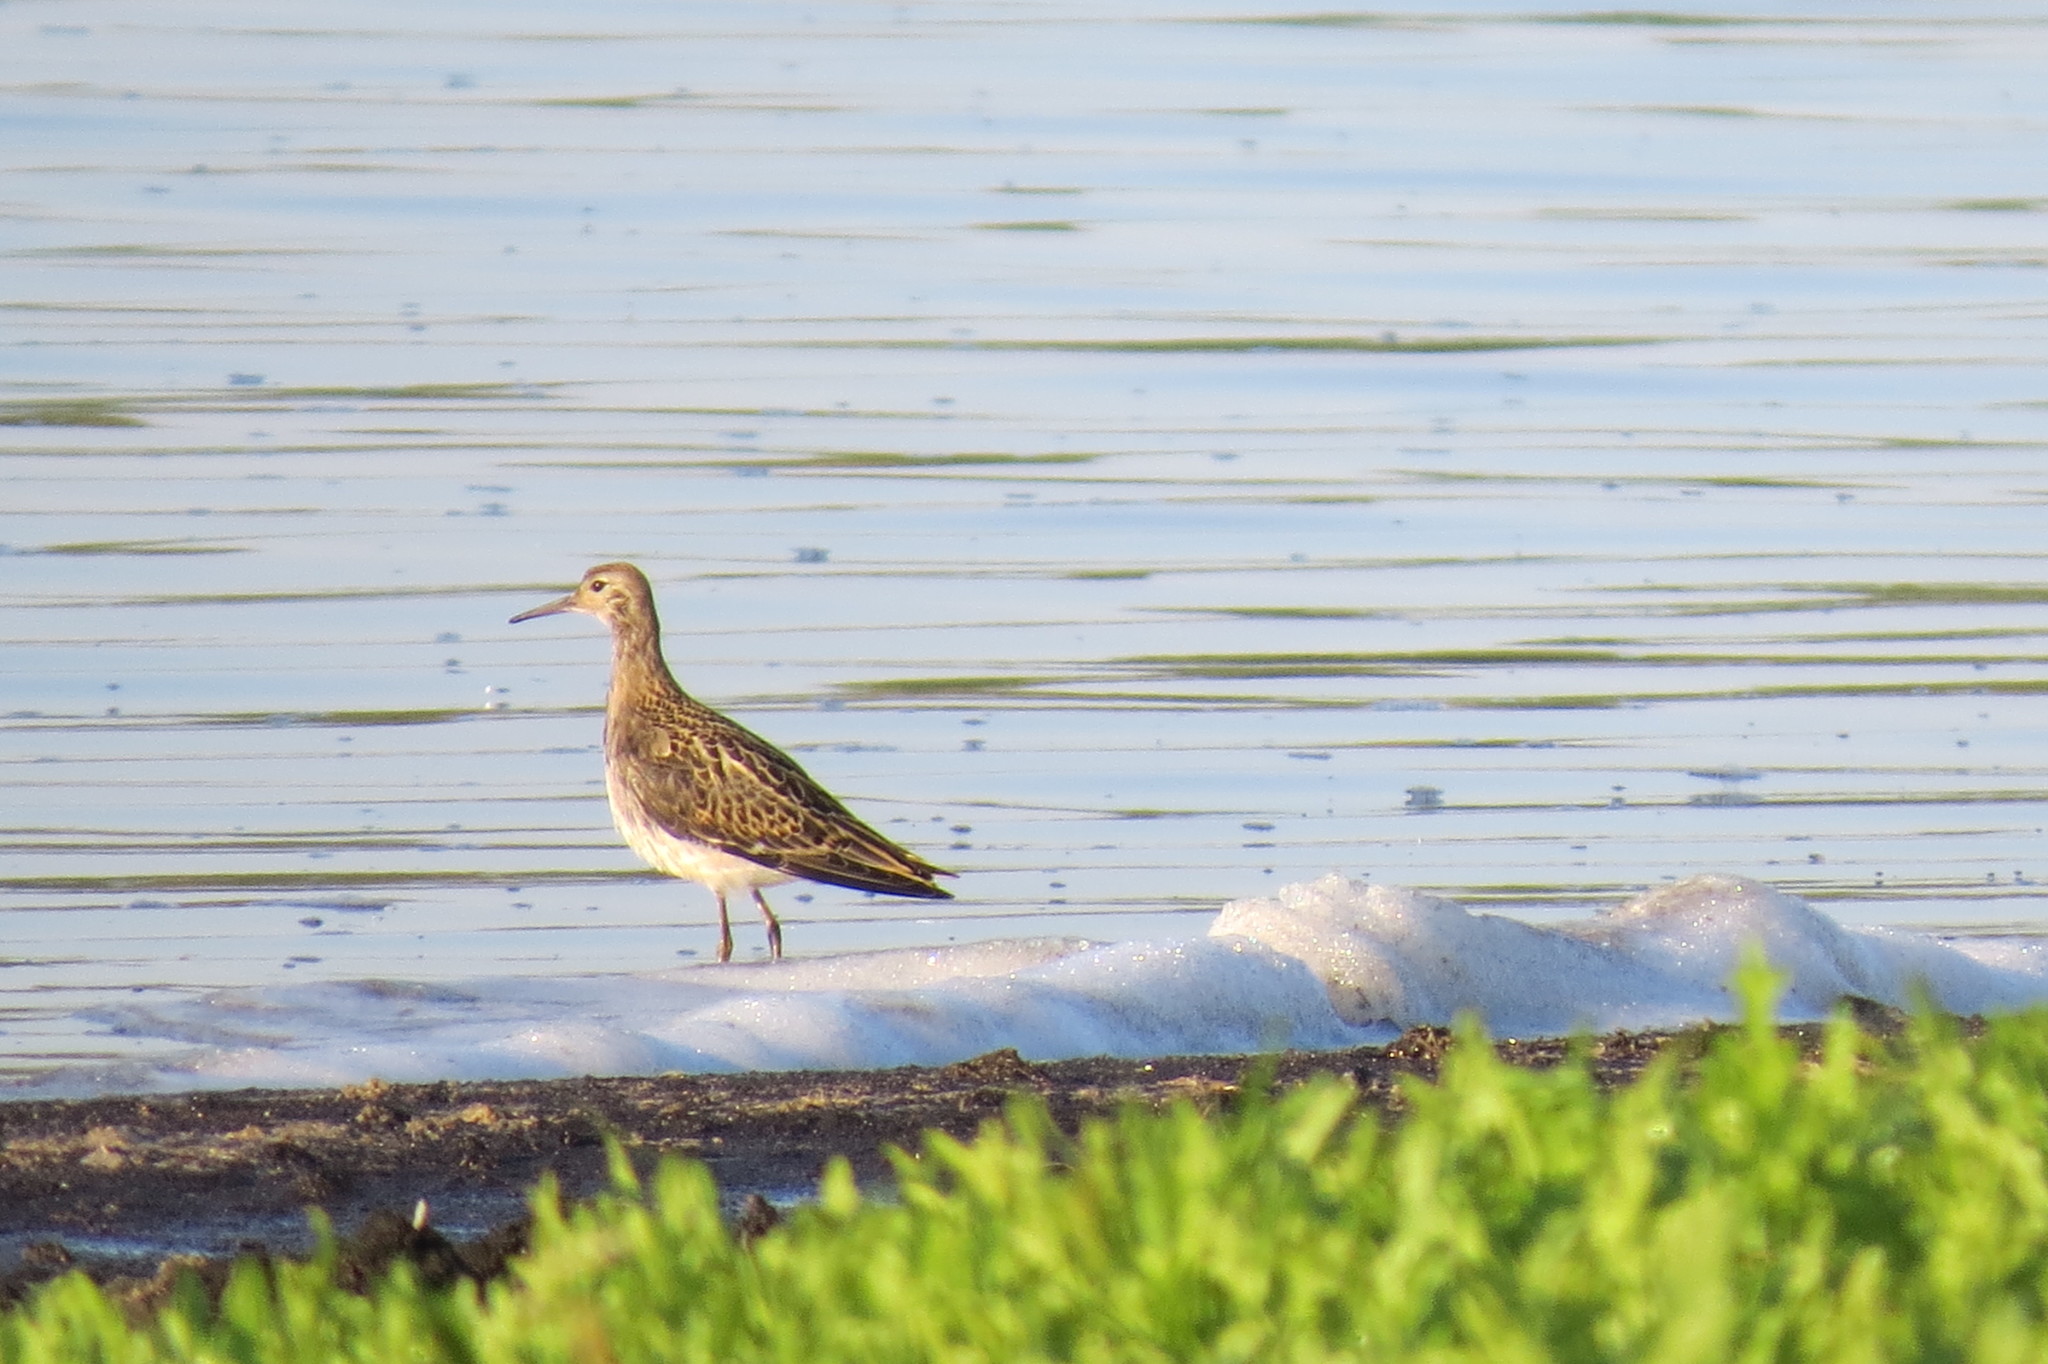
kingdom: Animalia
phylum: Chordata
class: Aves
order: Charadriiformes
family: Scolopacidae
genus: Calidris
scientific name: Calidris pugnax
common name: Ruff
